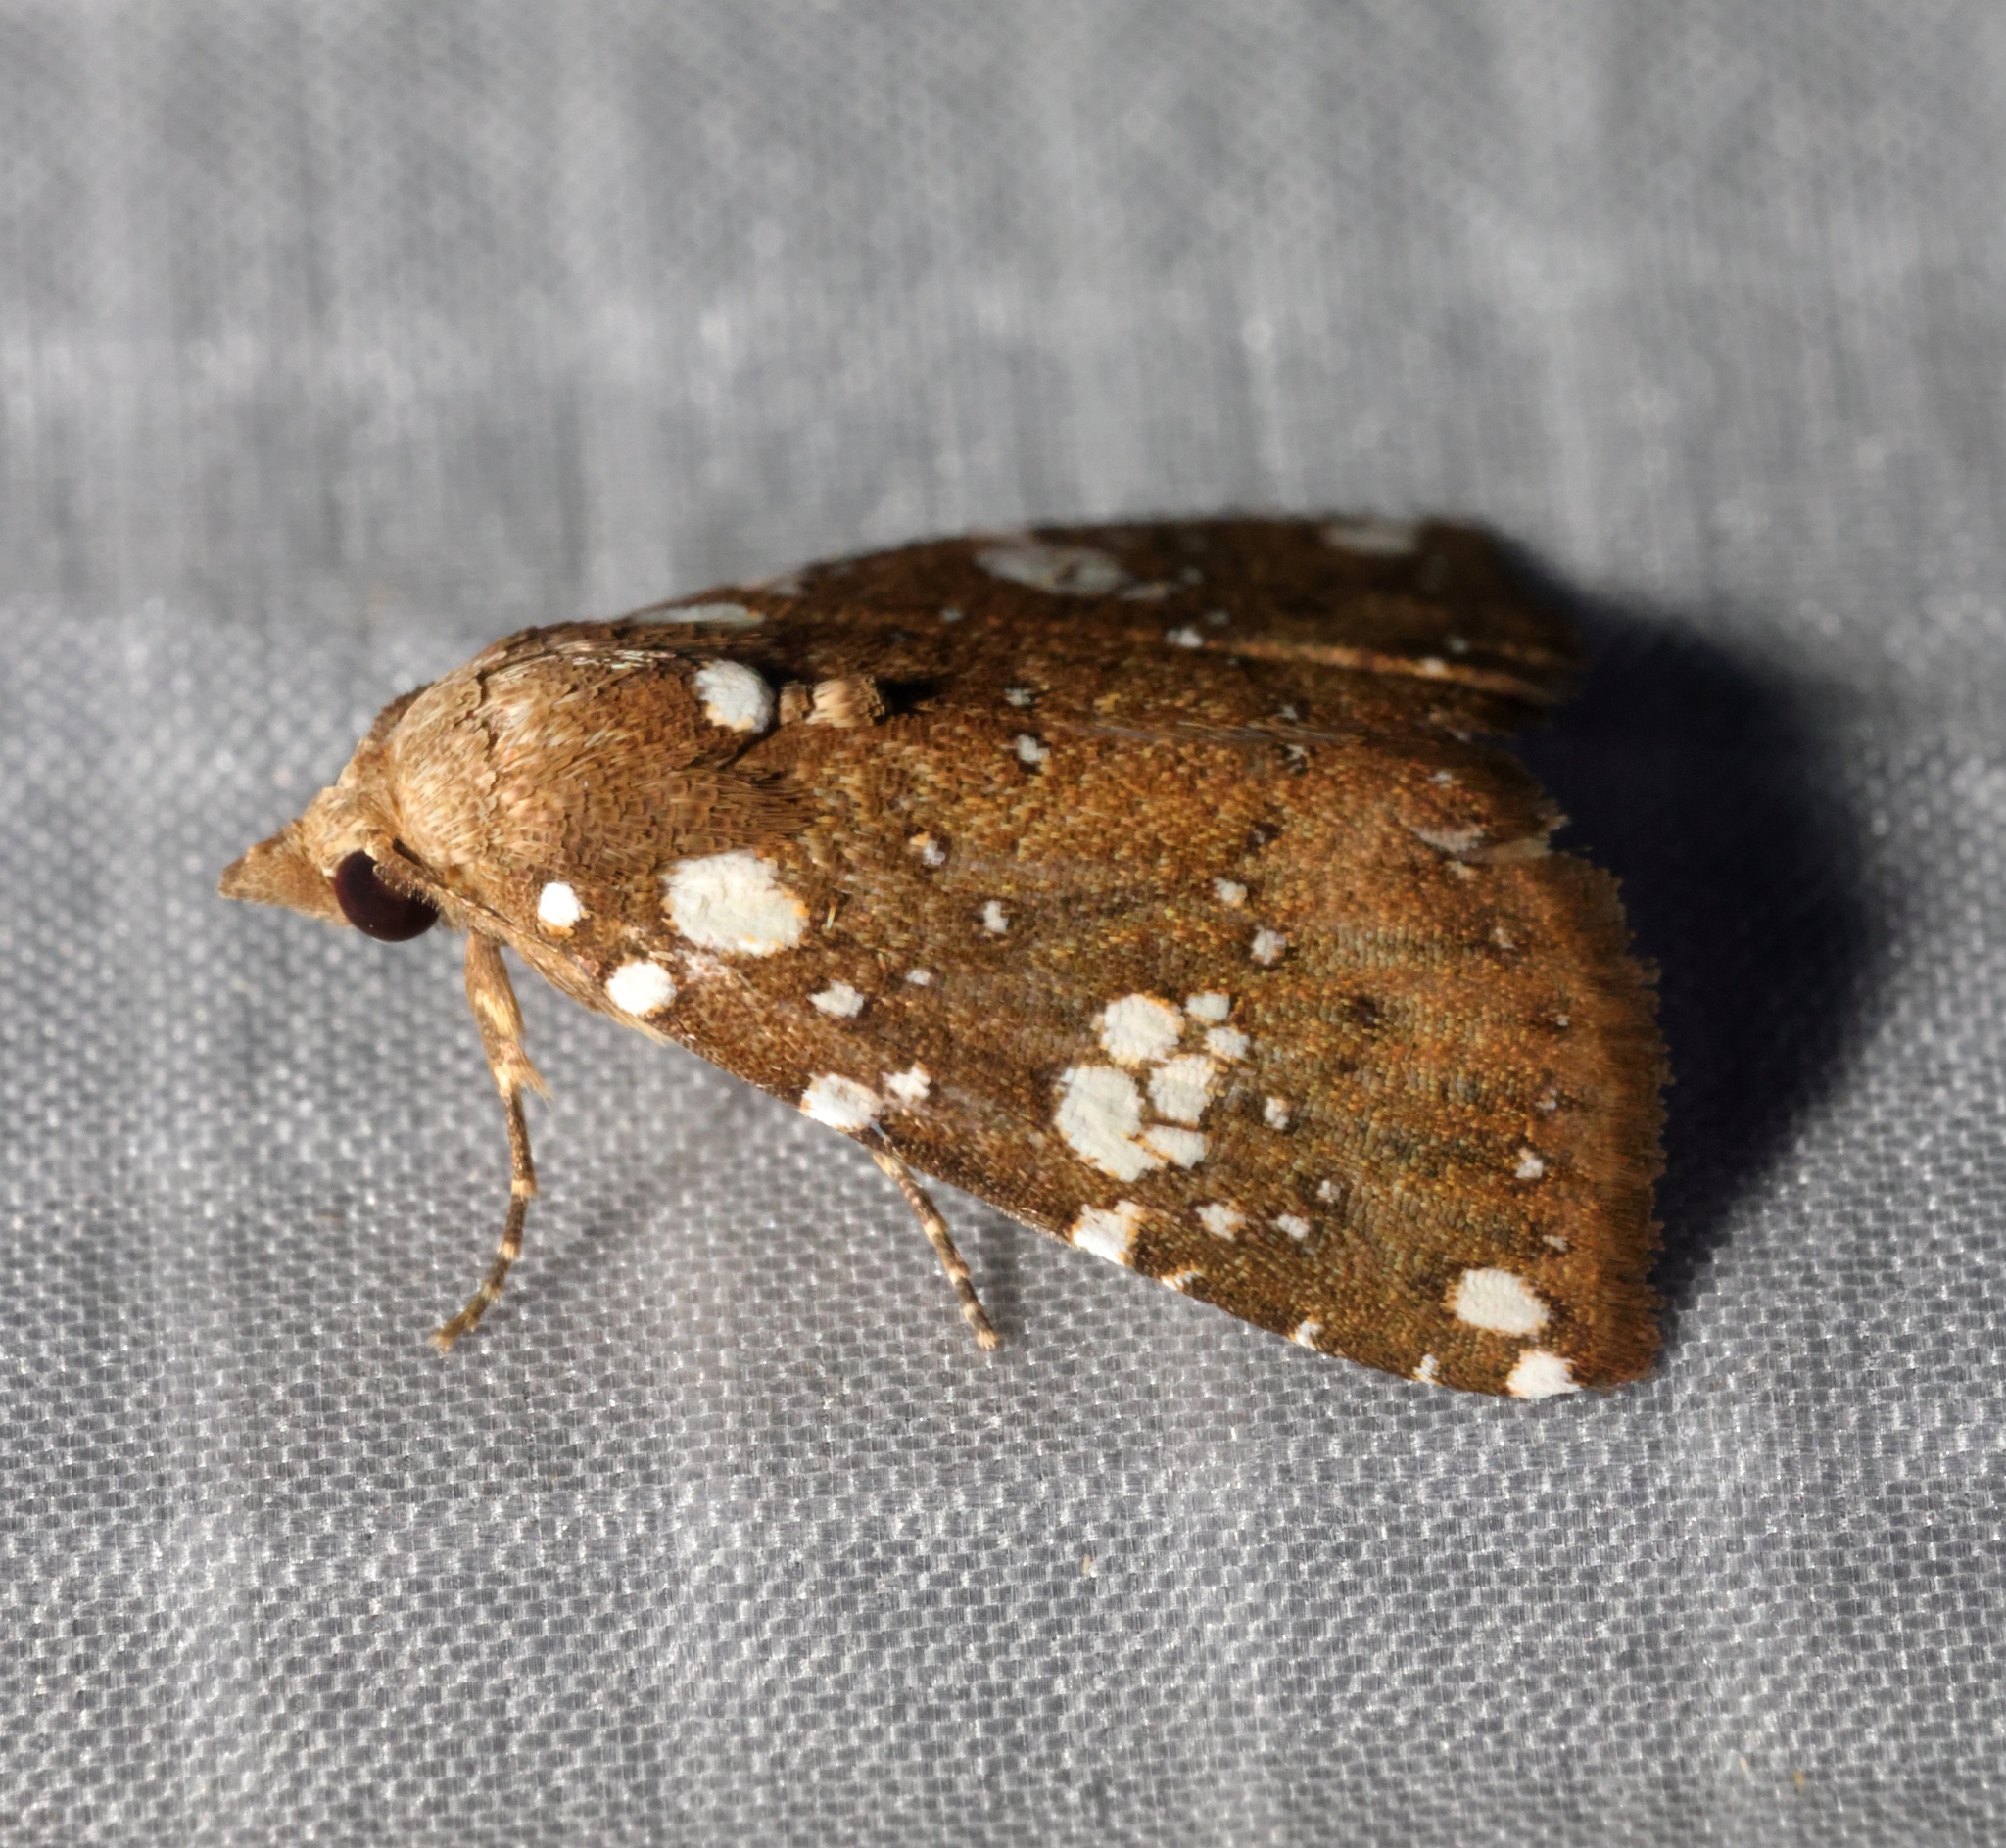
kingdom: Animalia
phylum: Arthropoda
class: Insecta
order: Lepidoptera
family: Erebidae
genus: Rivula
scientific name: Rivula niveipuncta
